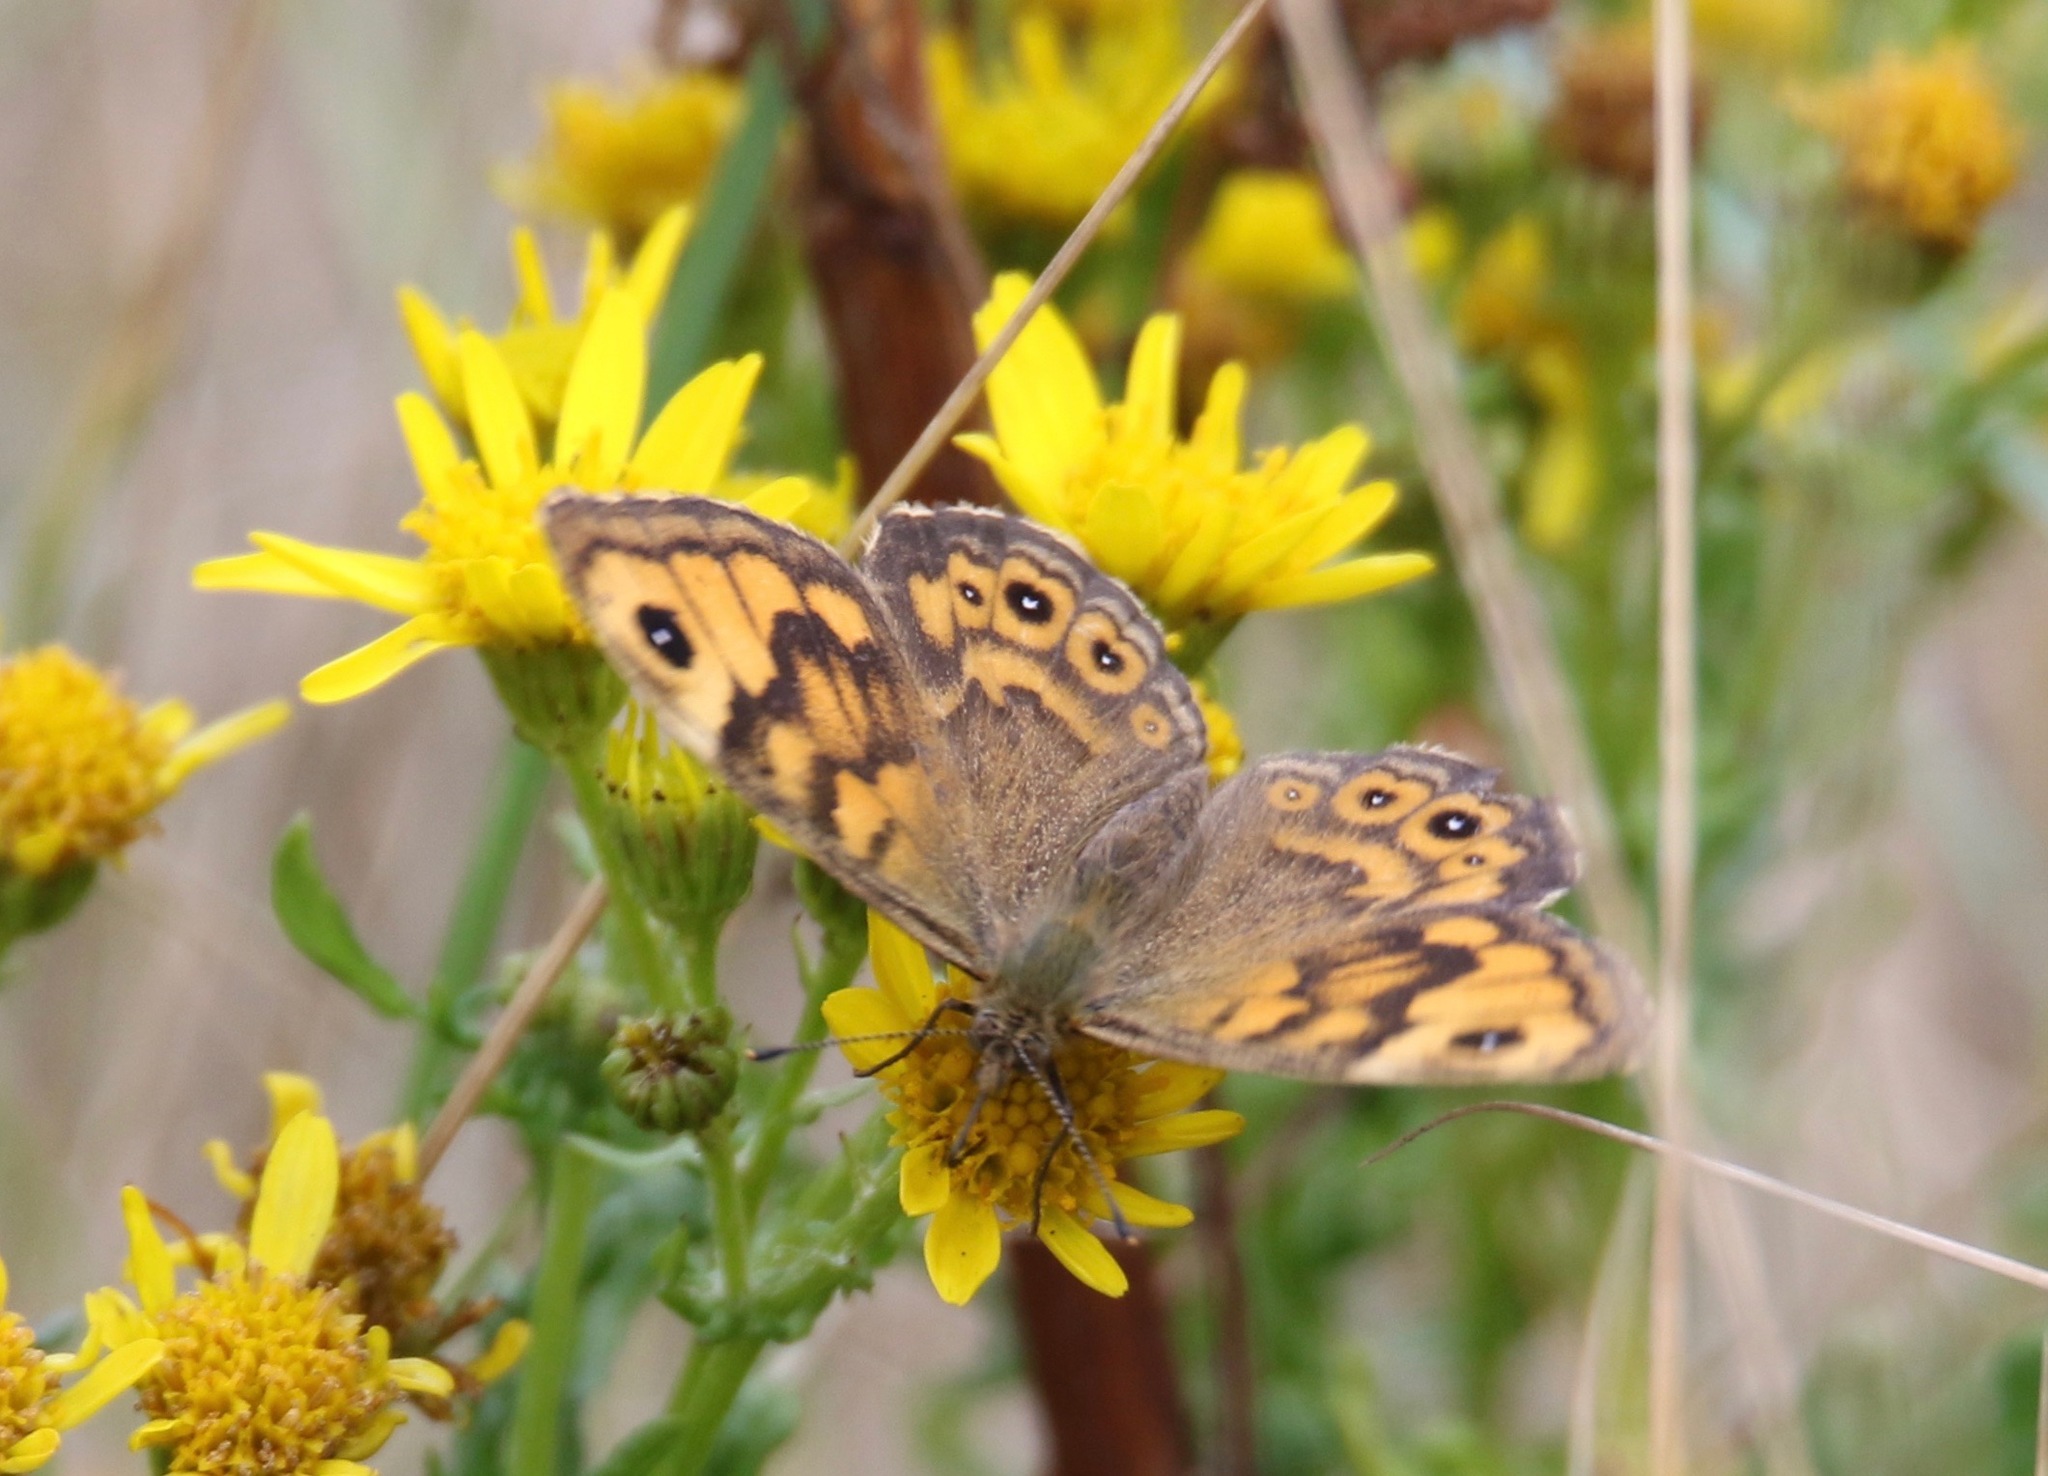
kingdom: Animalia
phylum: Arthropoda
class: Insecta
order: Lepidoptera
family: Nymphalidae
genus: Pararge
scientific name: Pararge Lasiommata megera
